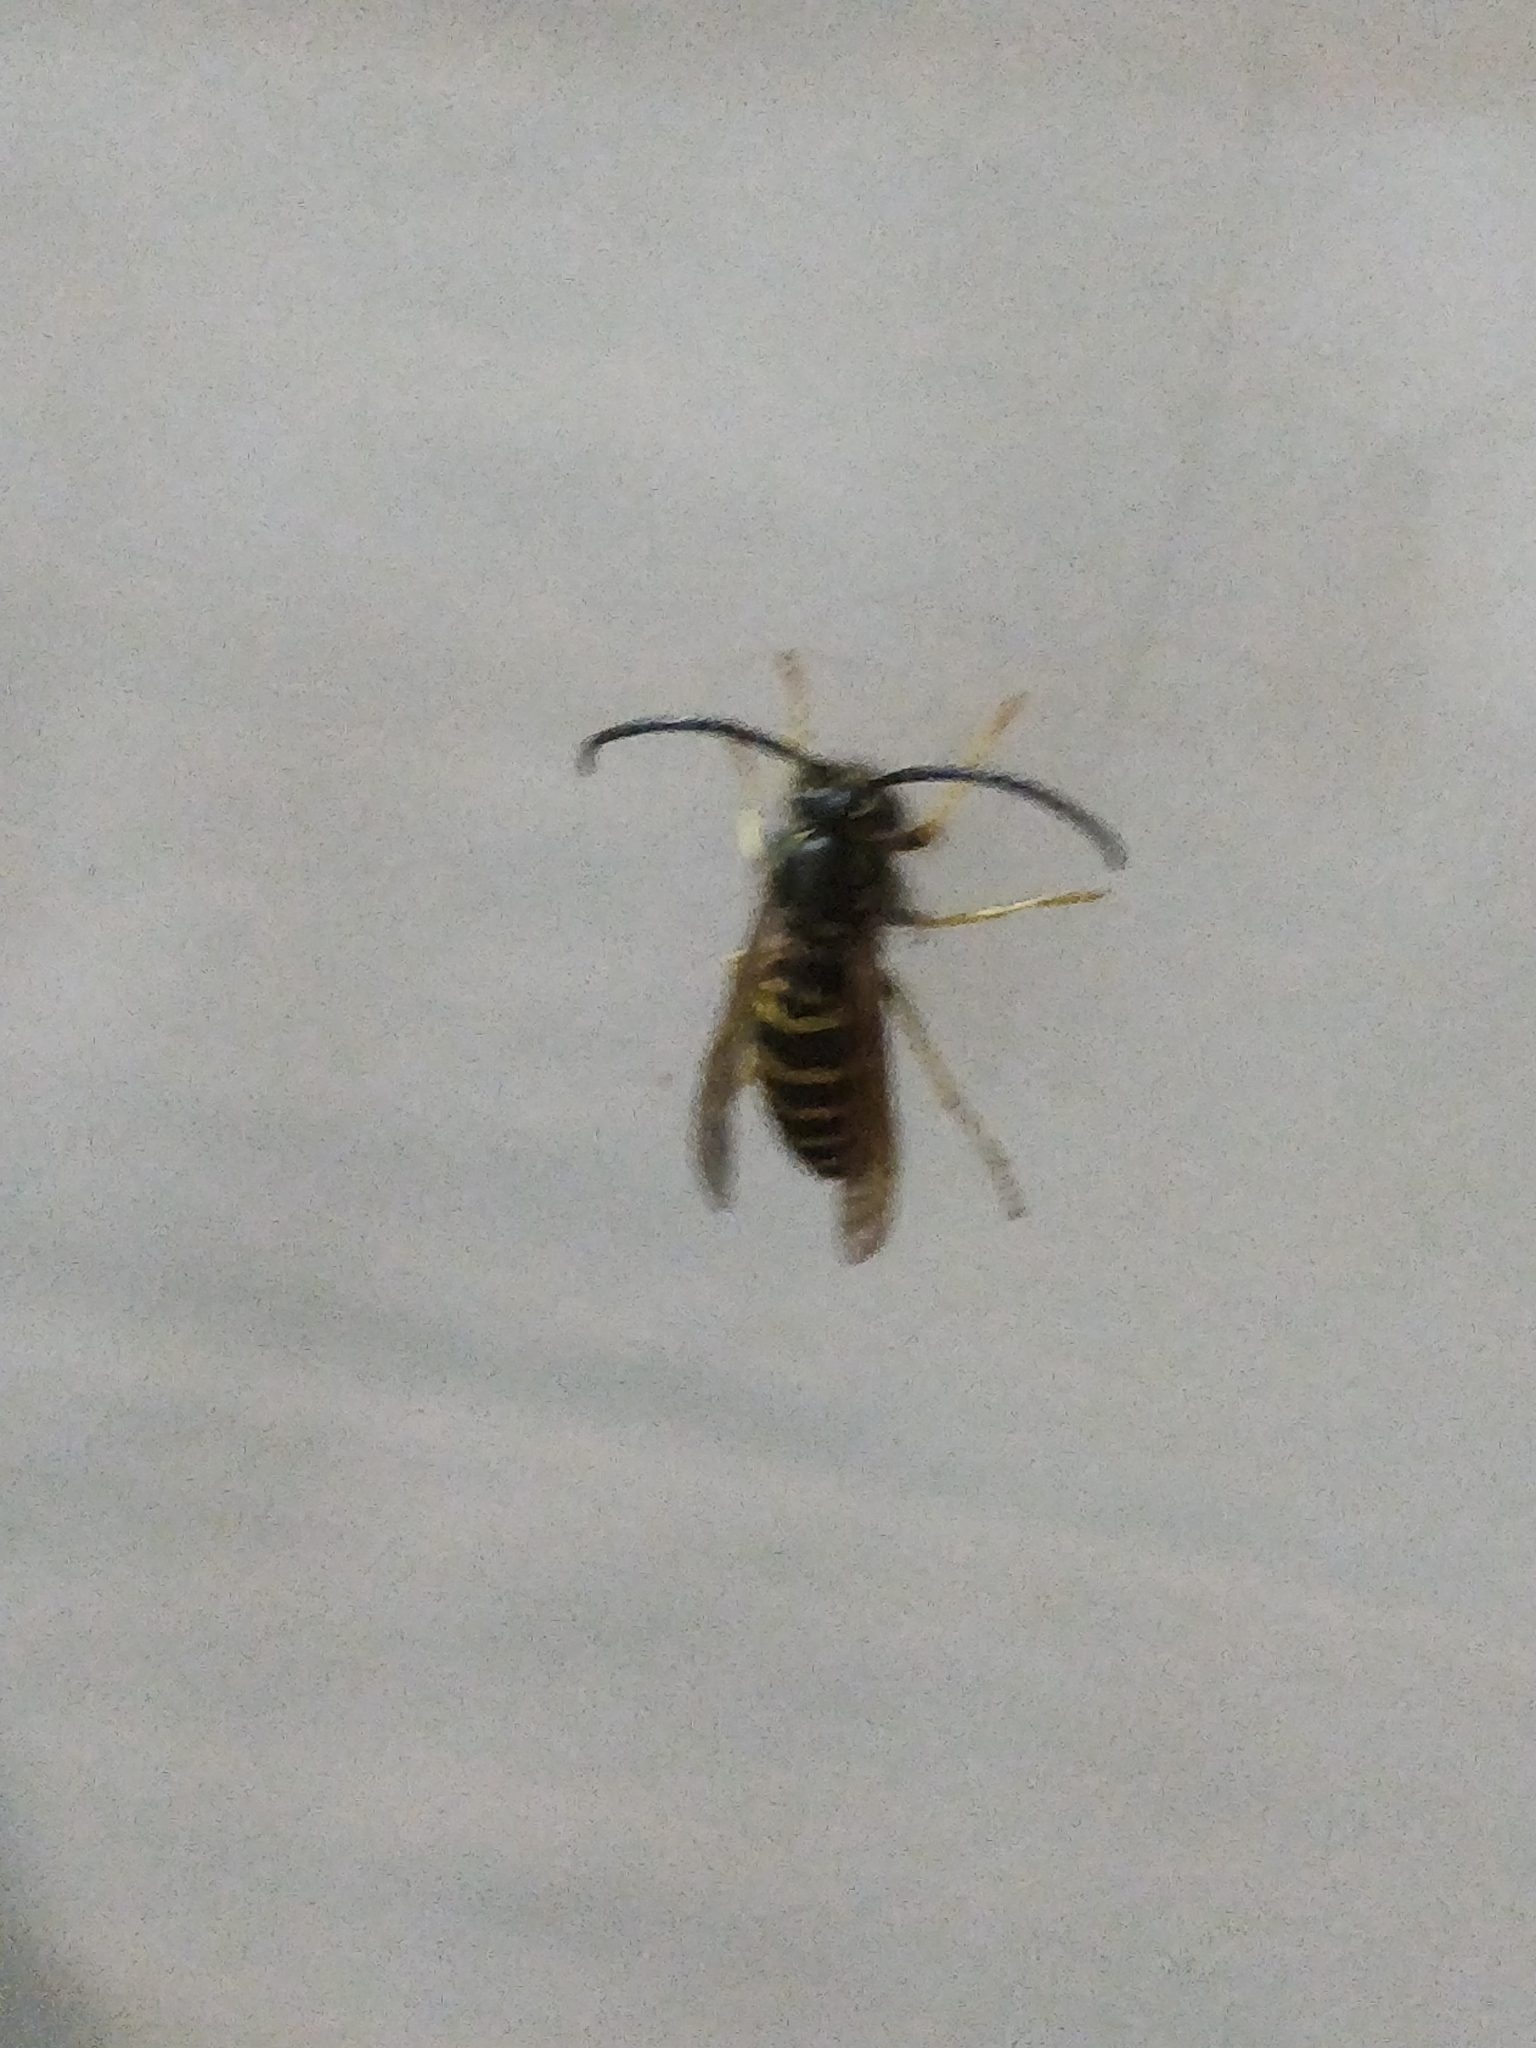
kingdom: Animalia
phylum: Arthropoda
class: Insecta
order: Hymenoptera
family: Vespidae
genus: Vespula
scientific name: Vespula maculifrons
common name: Eastern yellowjacket
